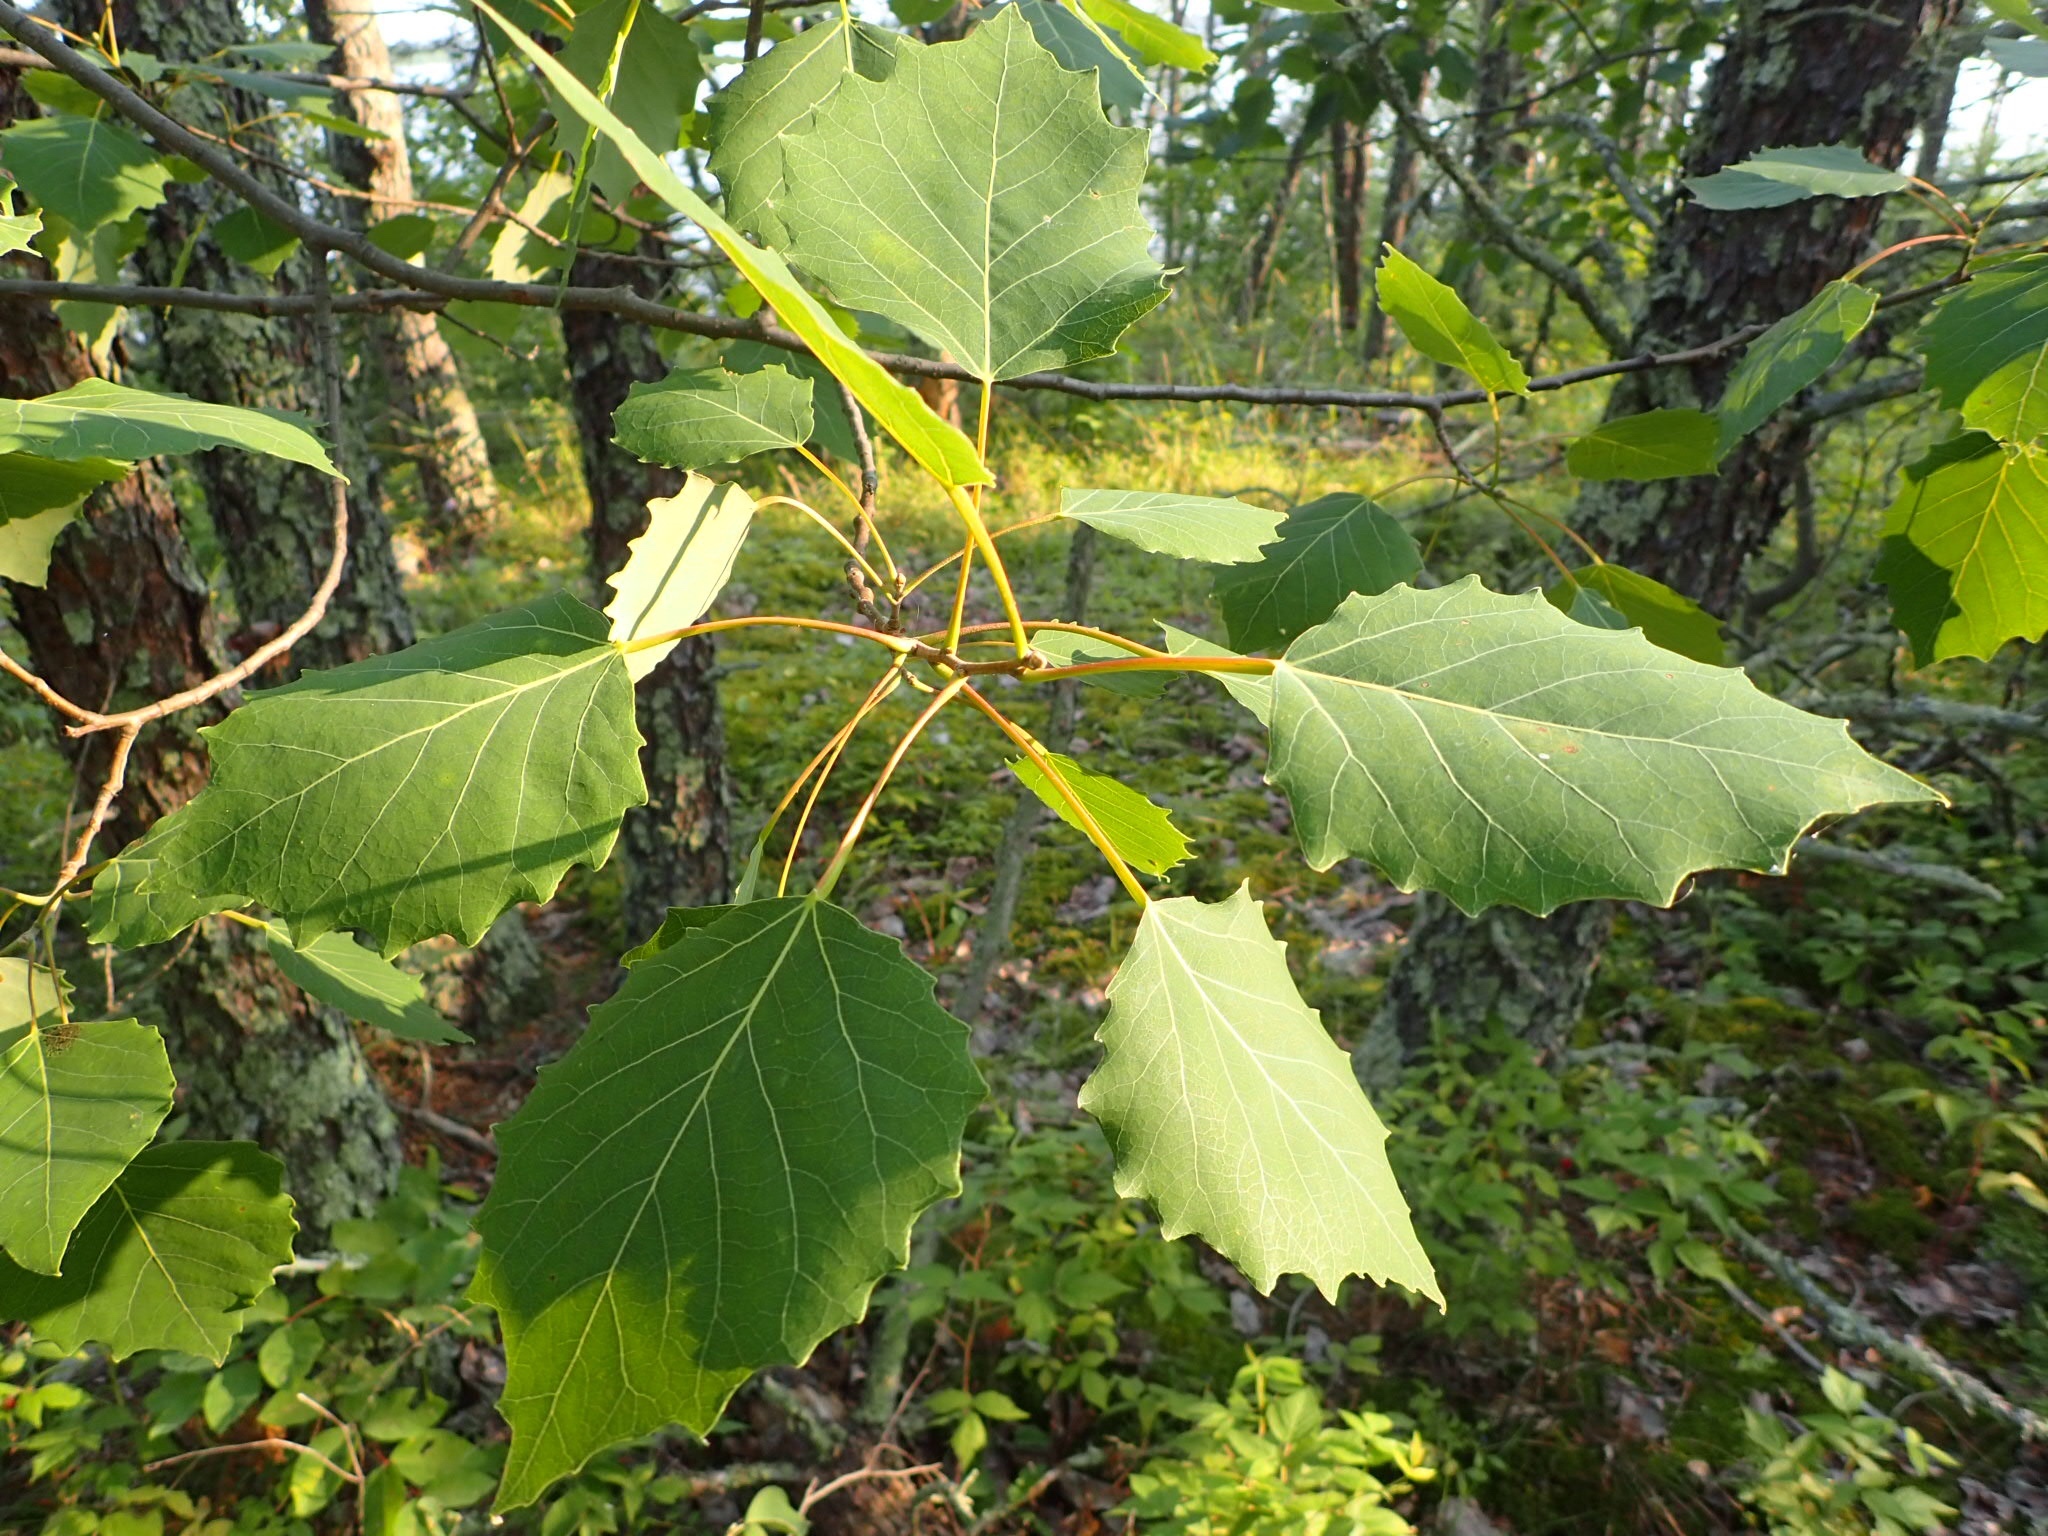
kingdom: Plantae
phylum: Tracheophyta
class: Magnoliopsida
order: Malpighiales
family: Salicaceae
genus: Populus
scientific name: Populus grandidentata
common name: Bigtooth aspen
